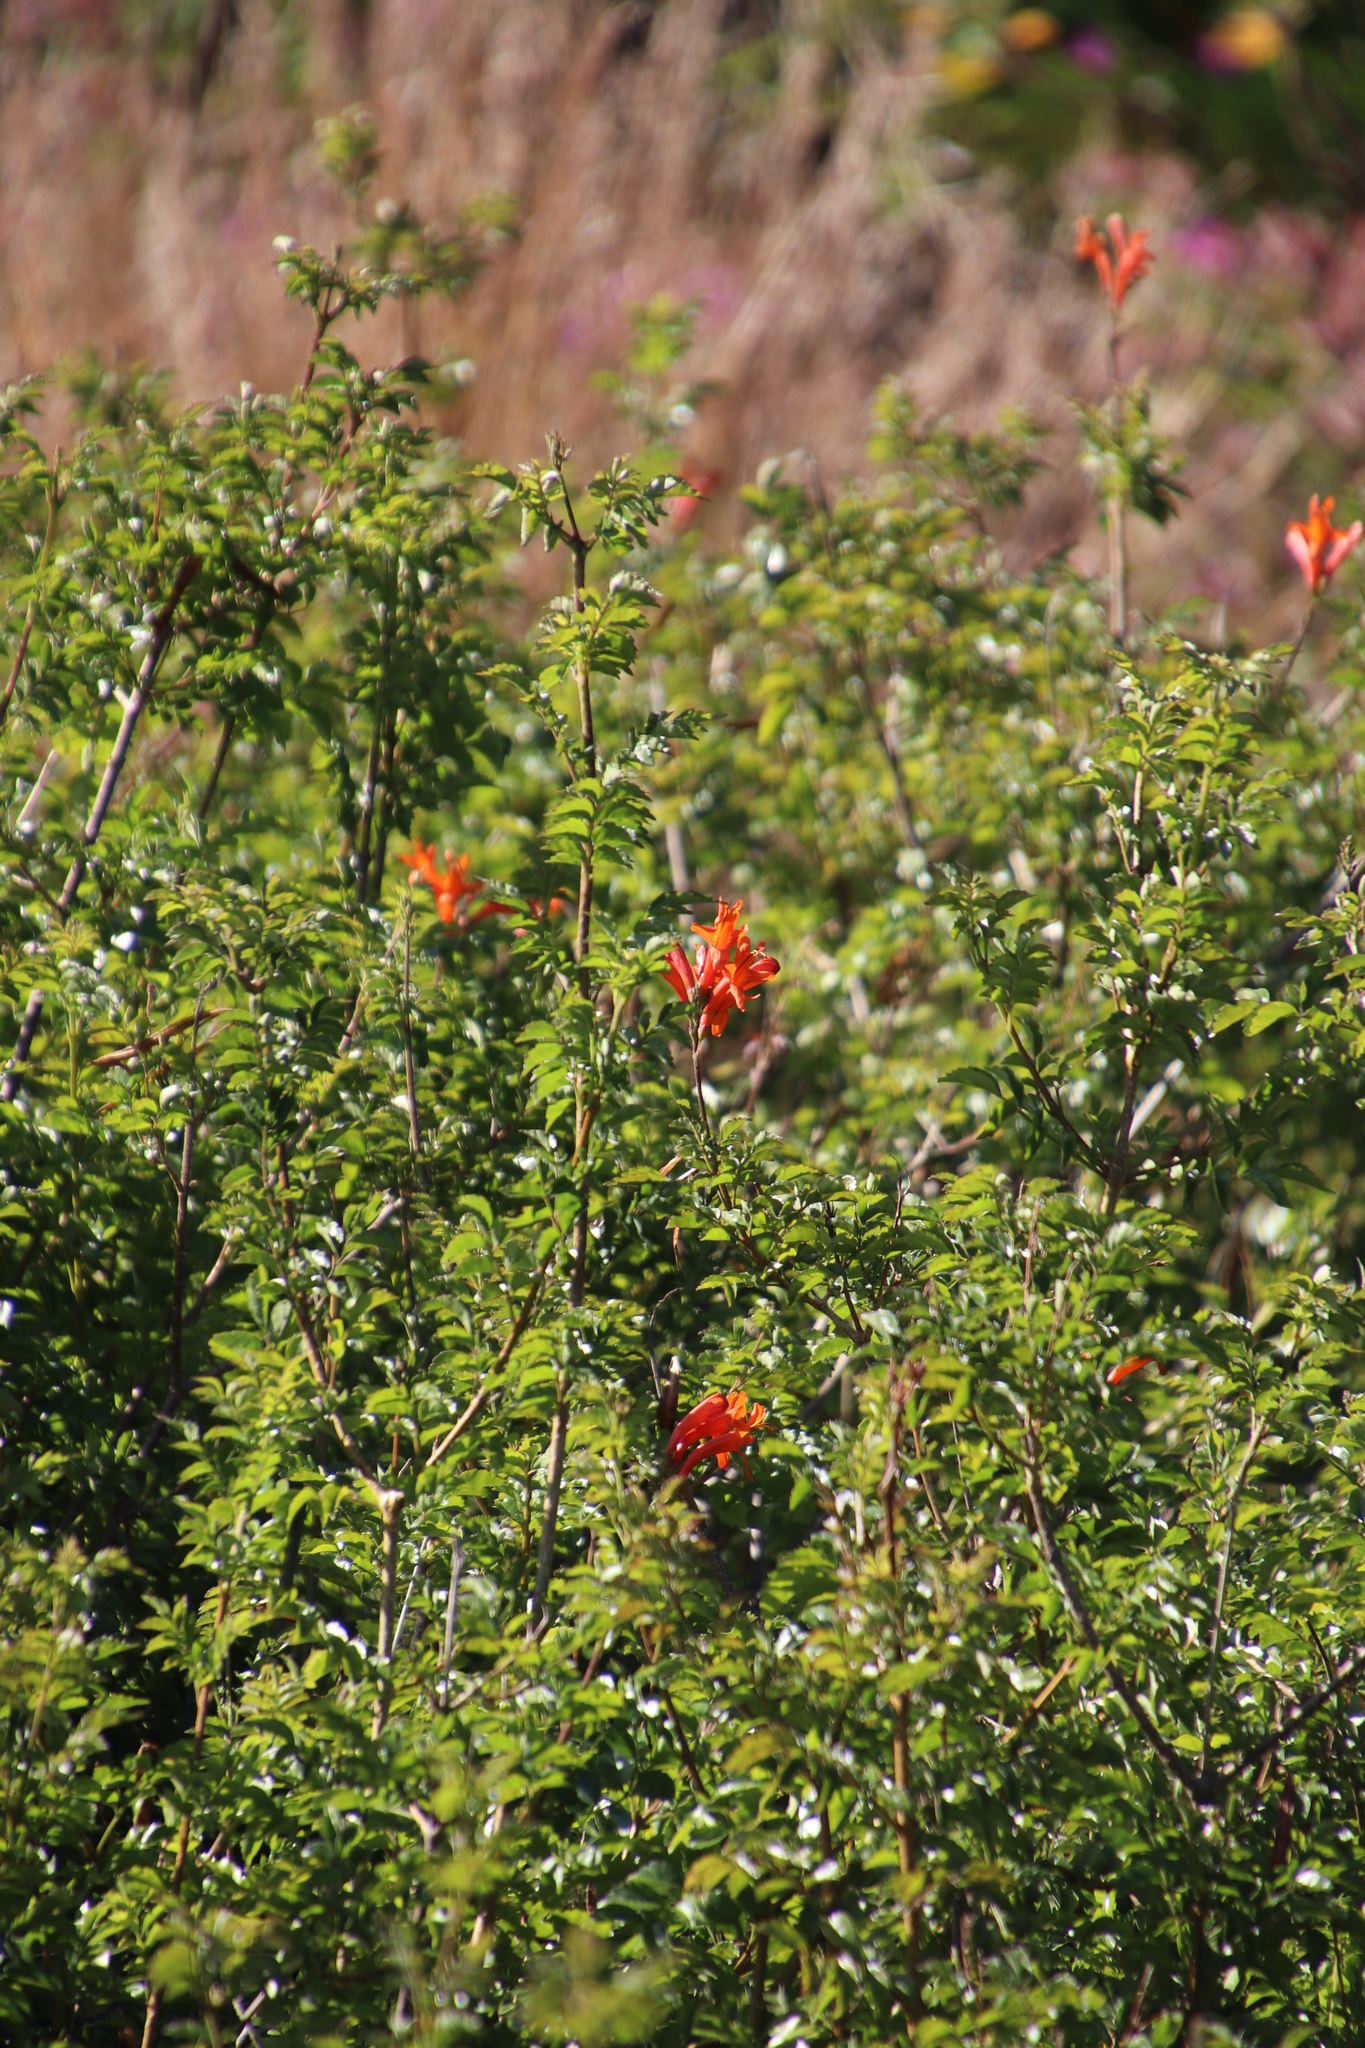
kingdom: Plantae
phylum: Tracheophyta
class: Magnoliopsida
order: Lamiales
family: Bignoniaceae
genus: Tecomaria
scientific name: Tecomaria capensis
